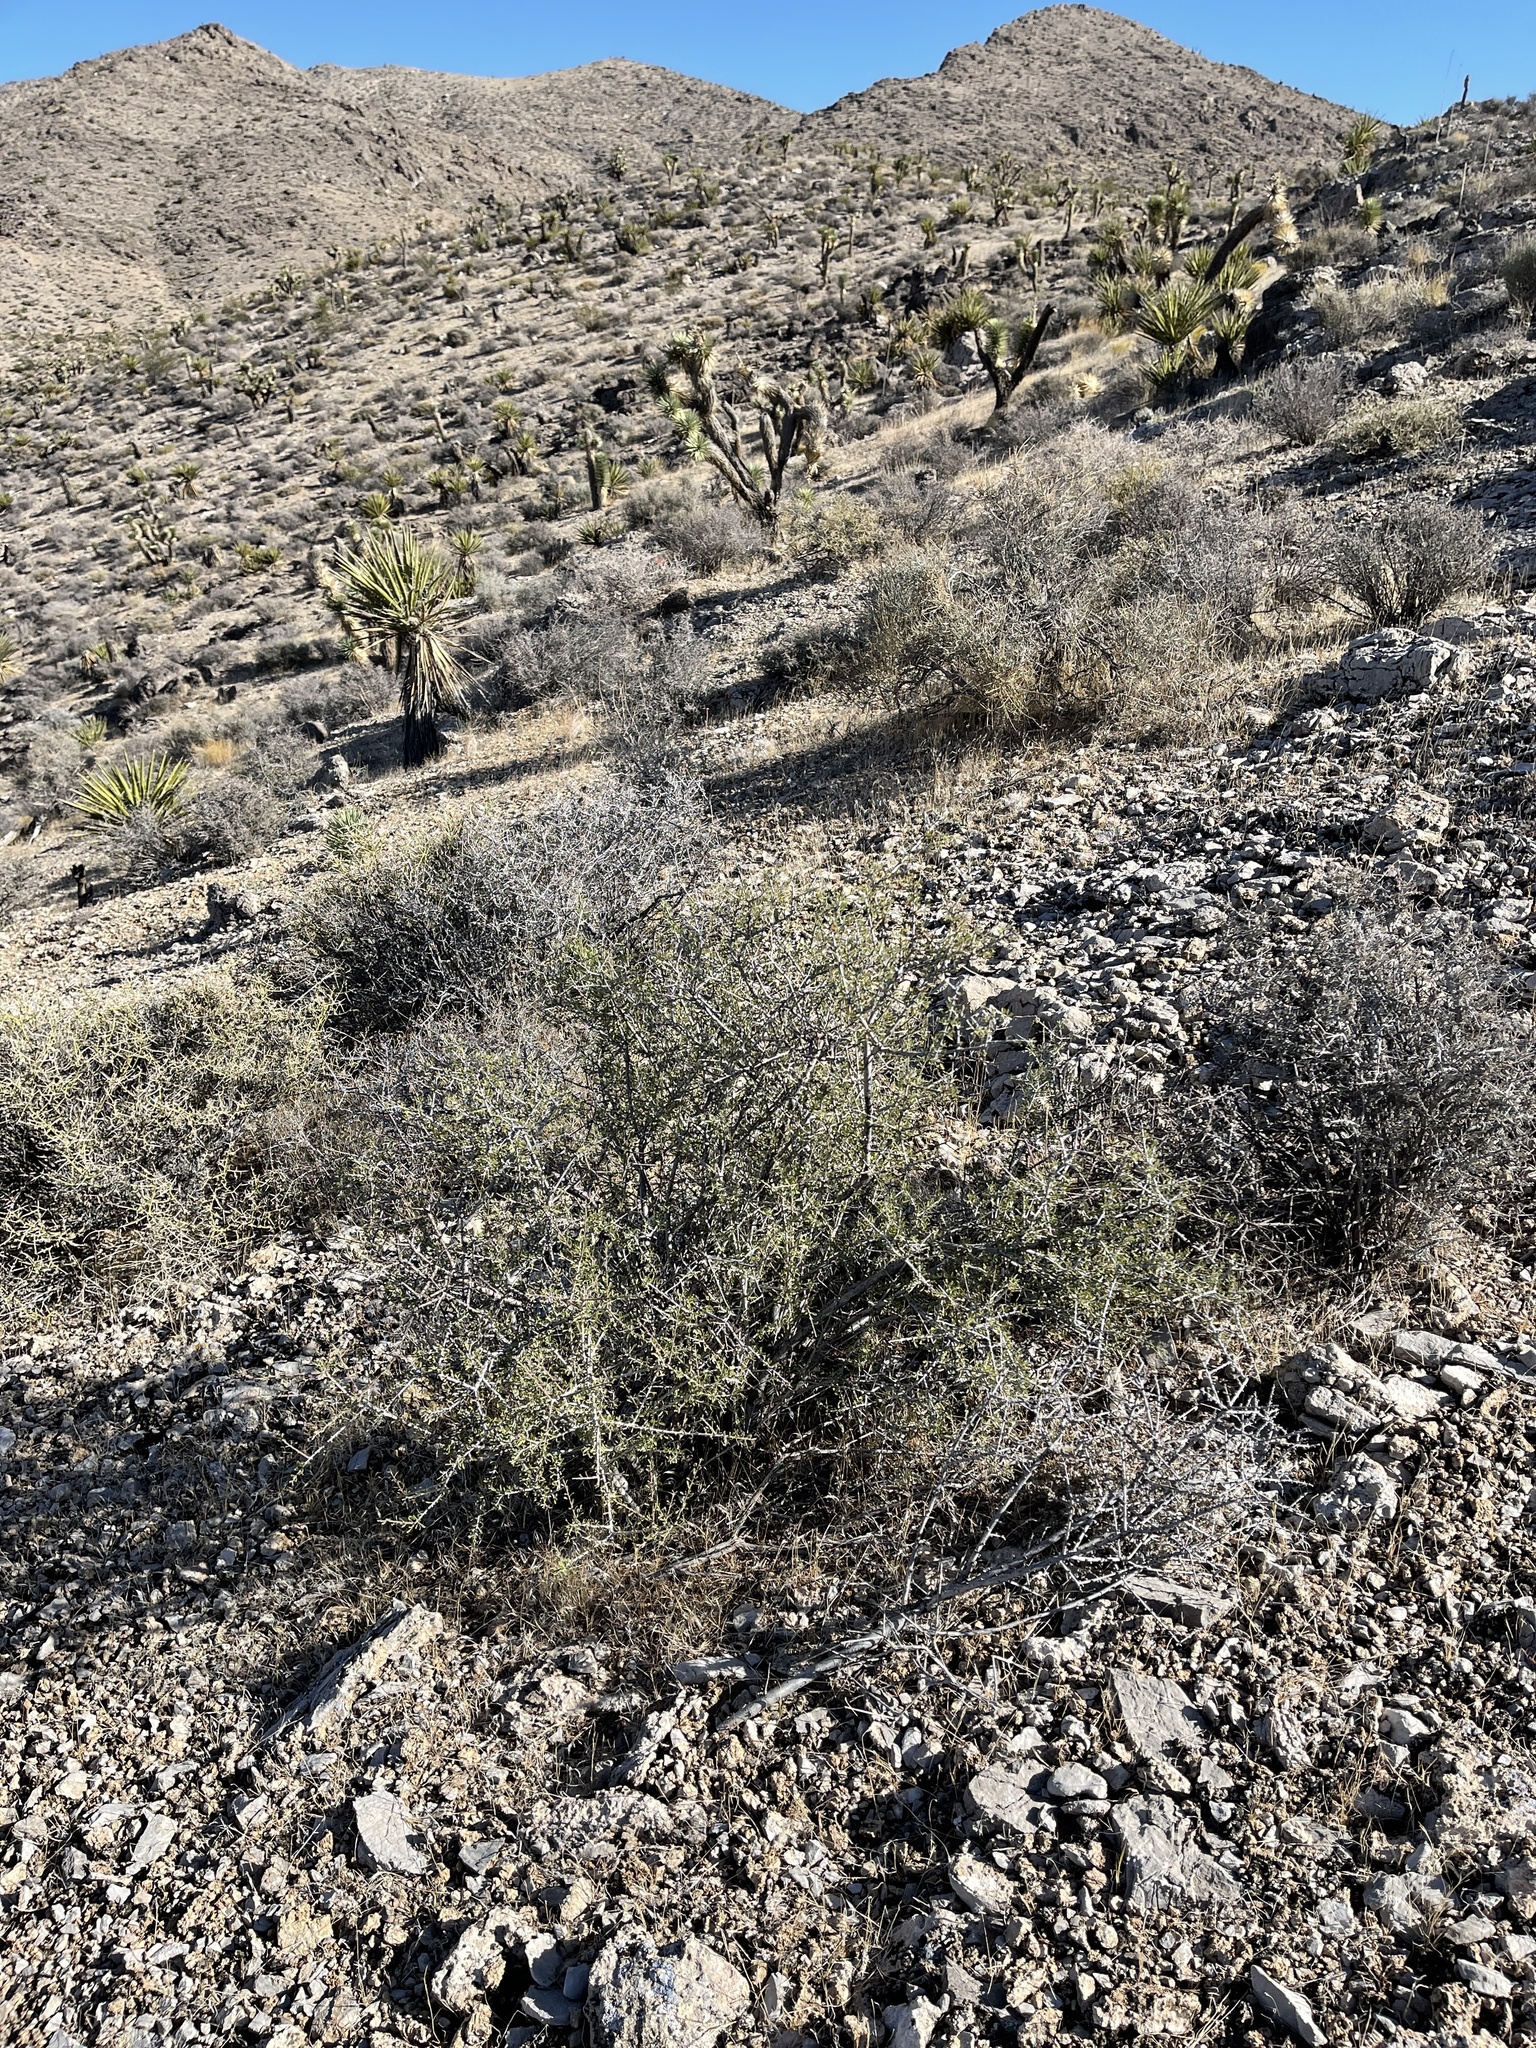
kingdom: Plantae
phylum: Tracheophyta
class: Magnoliopsida
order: Rosales
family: Rosaceae
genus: Prunus
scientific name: Prunus fasciculata
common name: Desert almond
